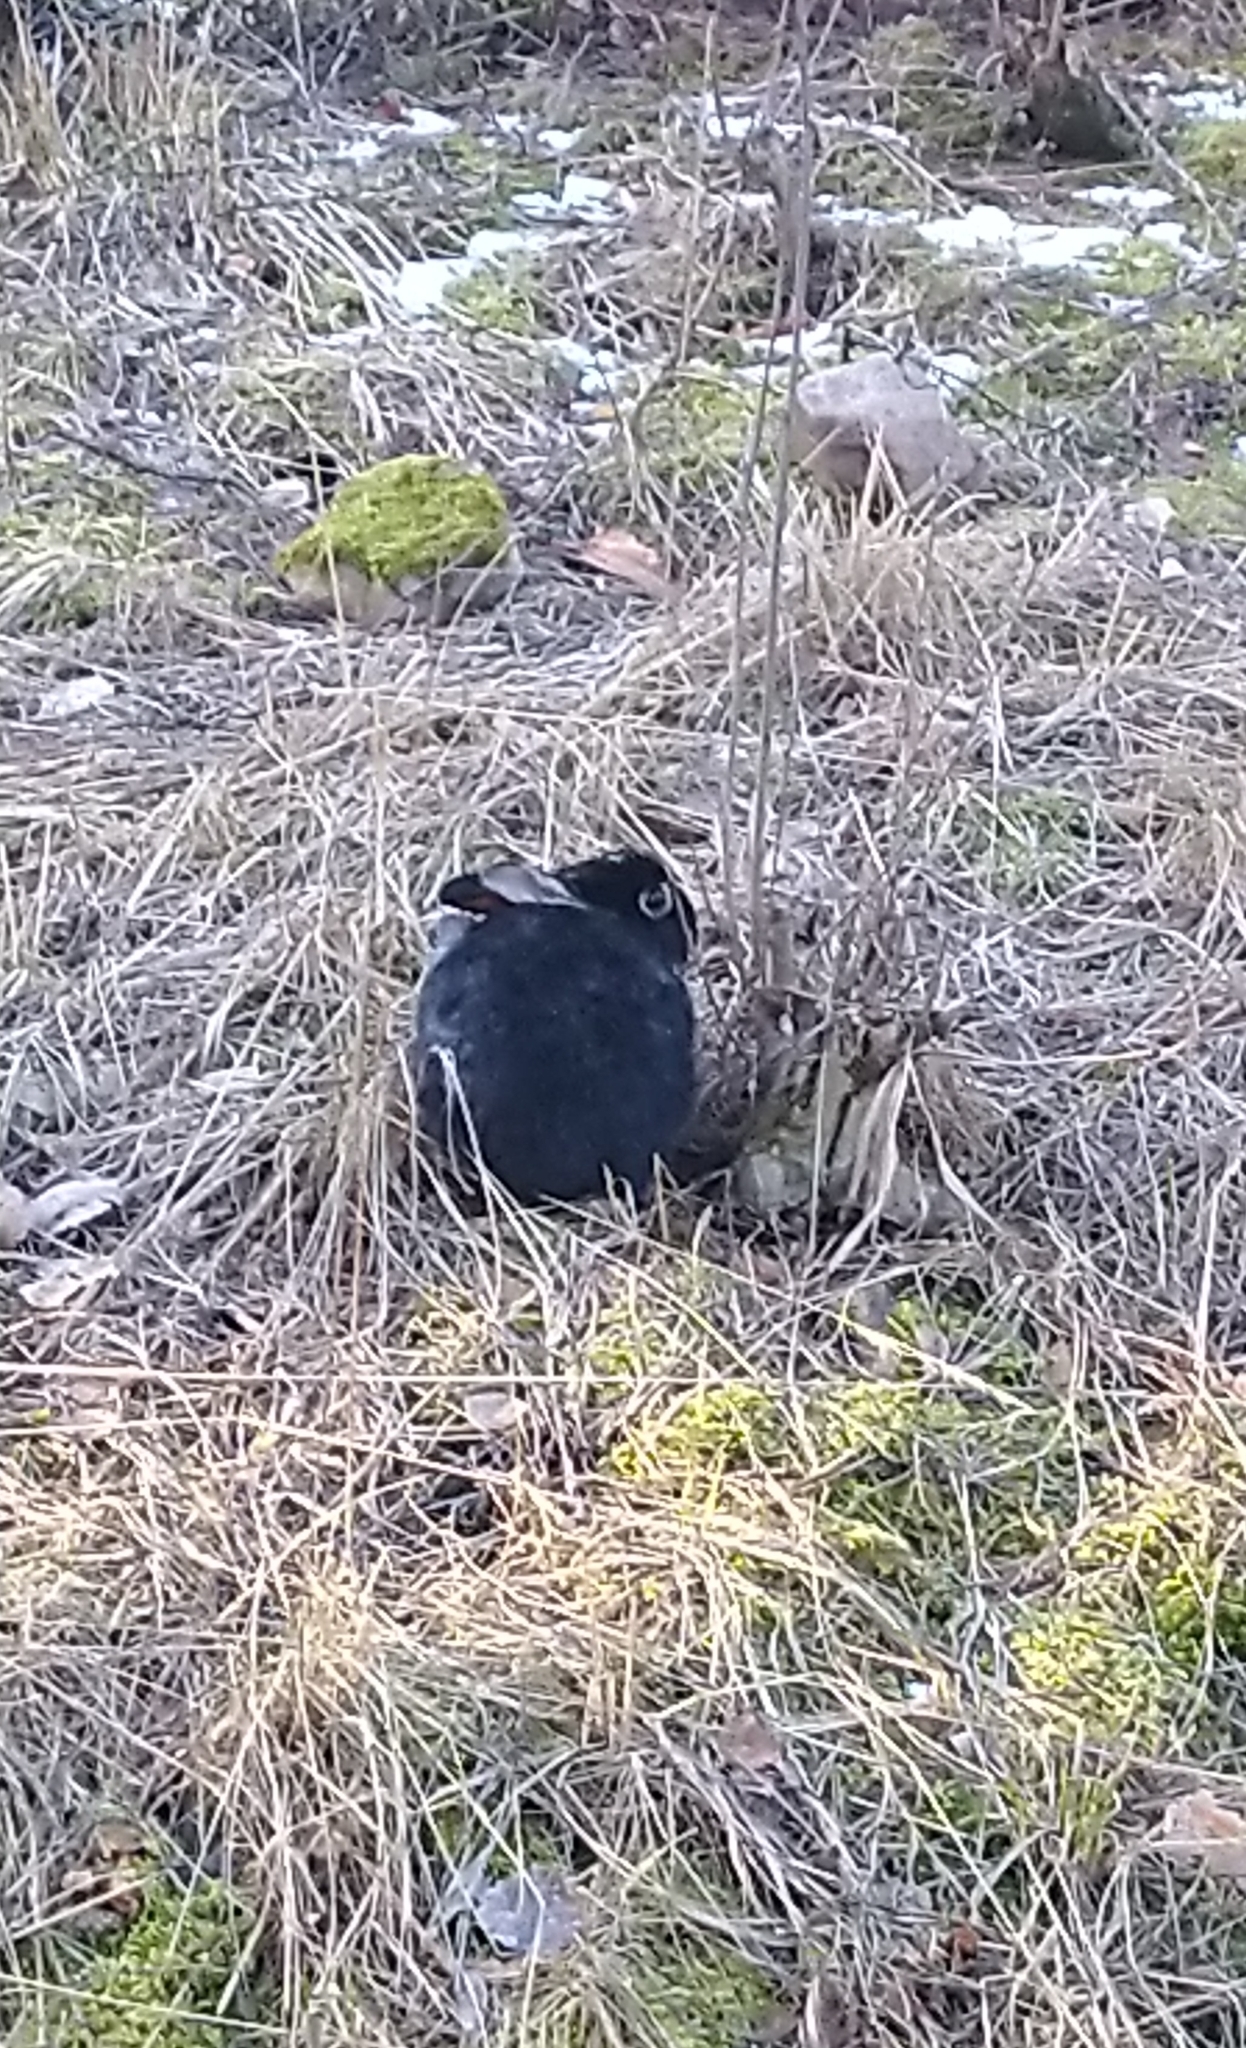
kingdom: Animalia
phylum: Chordata
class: Mammalia
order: Lagomorpha
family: Leporidae
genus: Oryctolagus
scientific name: Oryctolagus cuniculus
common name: European rabbit
